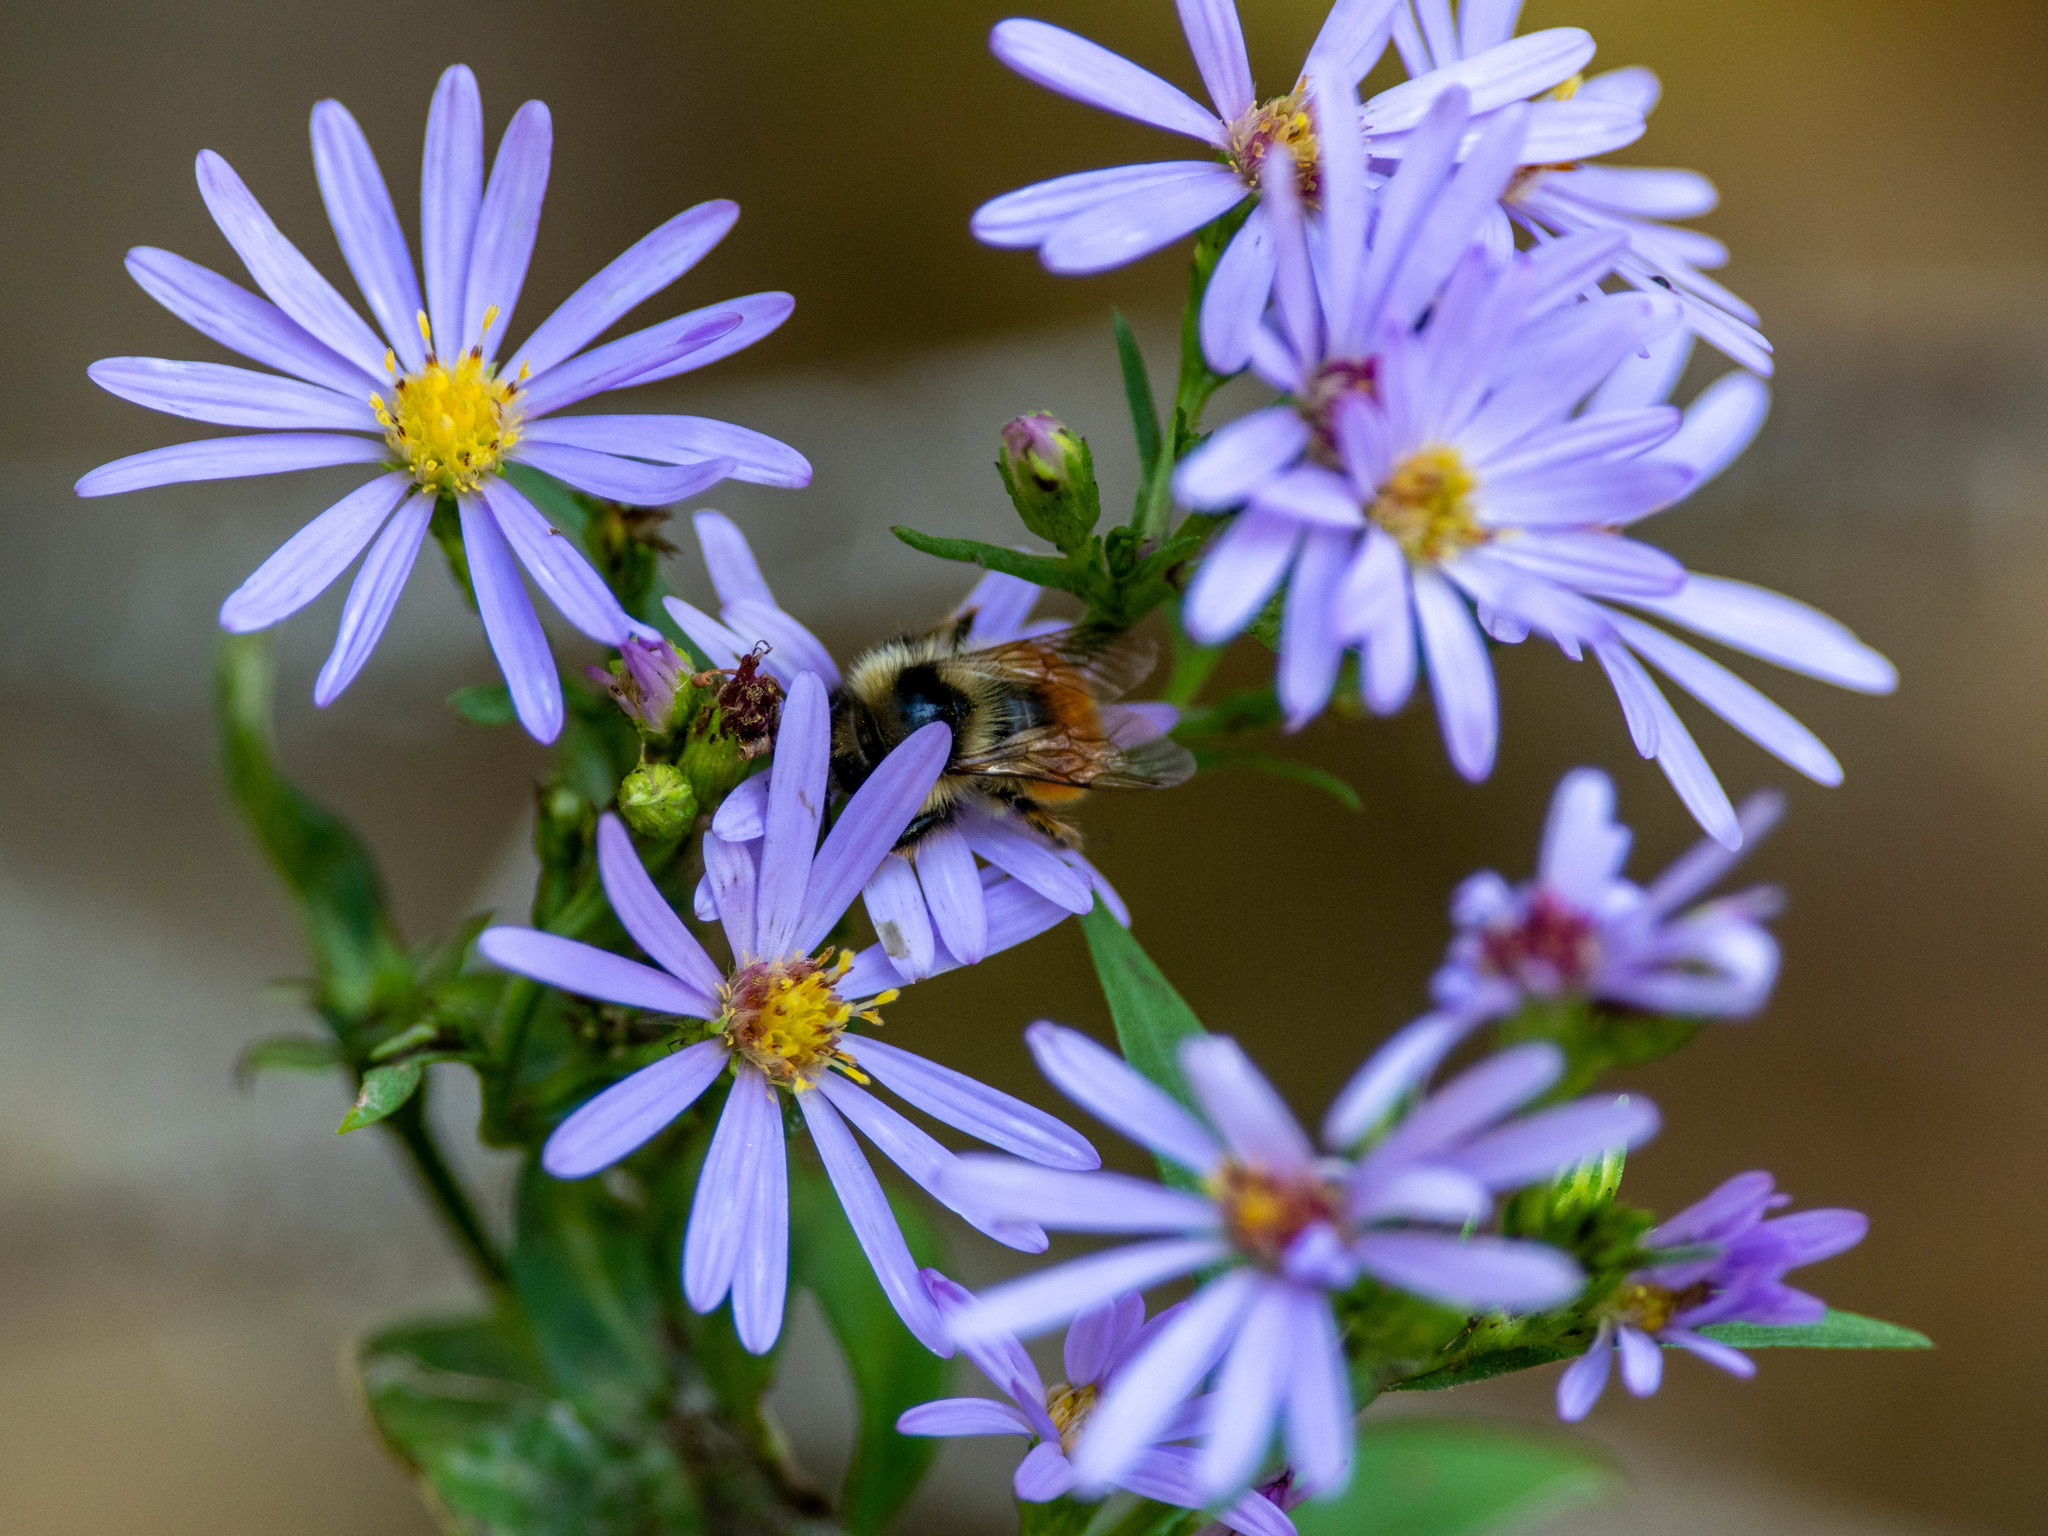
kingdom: Animalia
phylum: Arthropoda
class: Insecta
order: Hymenoptera
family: Apidae
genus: Bombus
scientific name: Bombus ternarius
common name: Tri-colored bumble bee
